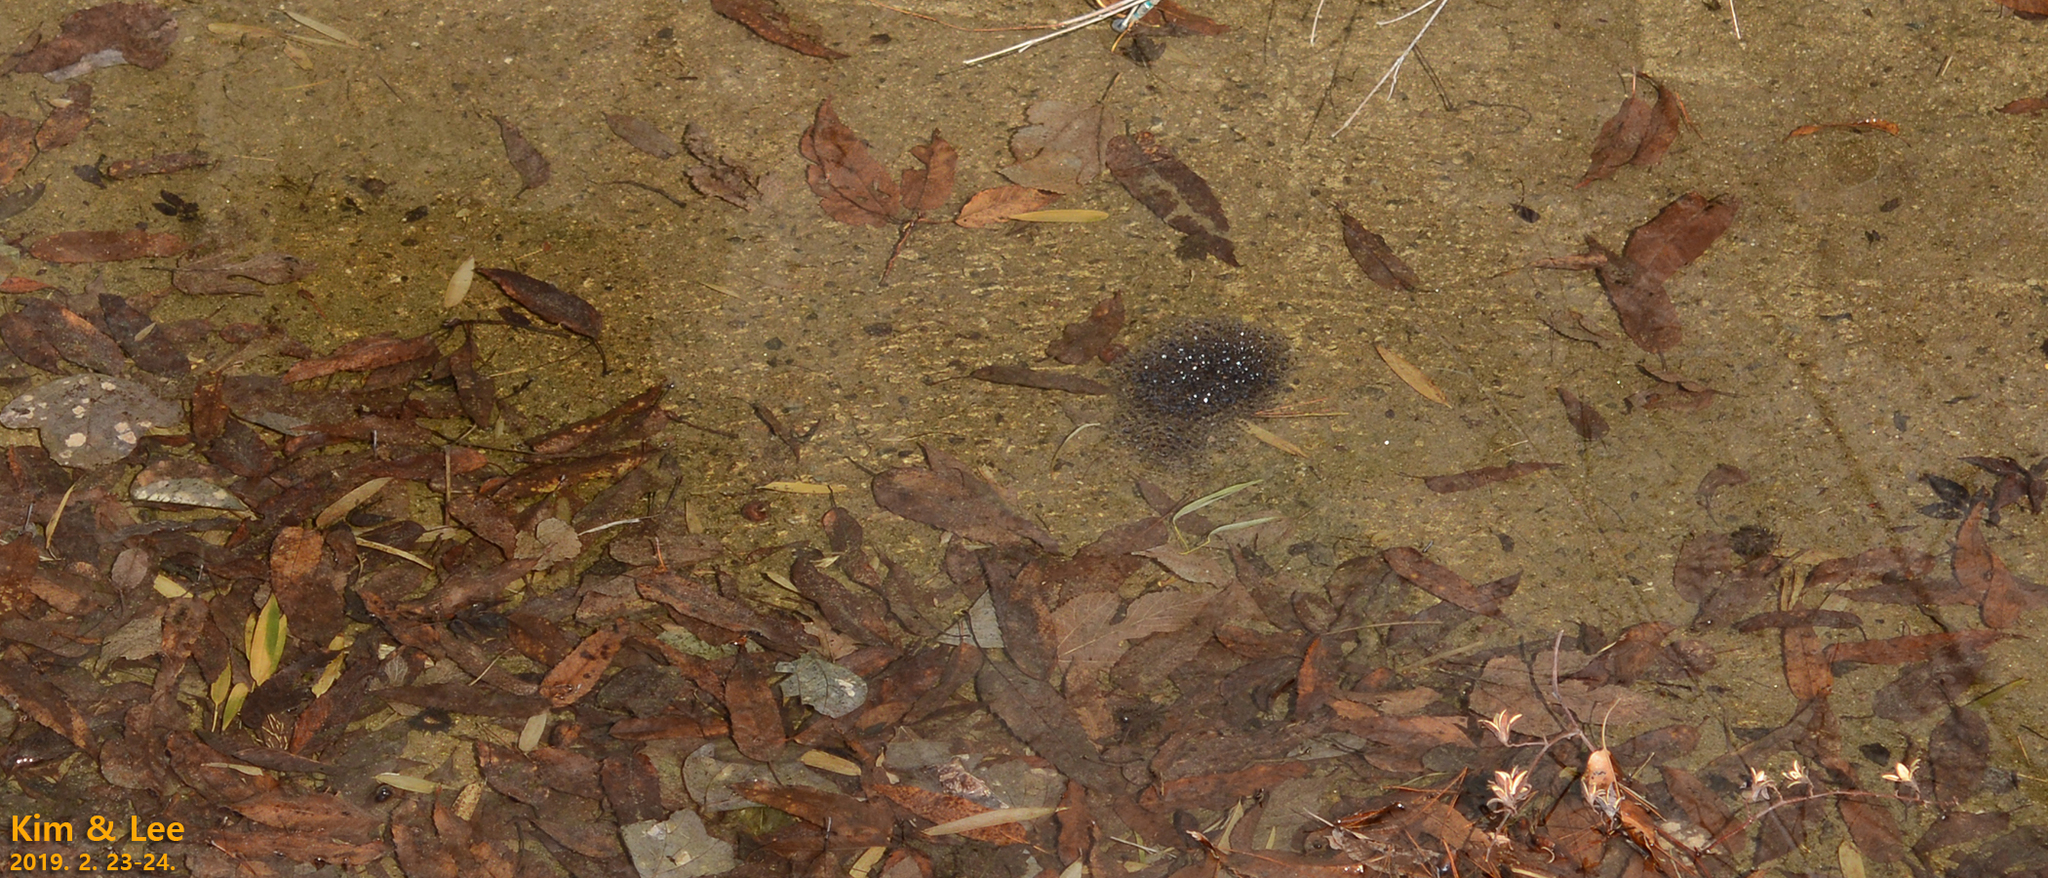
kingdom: Animalia
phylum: Chordata
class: Amphibia
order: Anura
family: Ranidae
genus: Rana
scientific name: Rana uenoi
